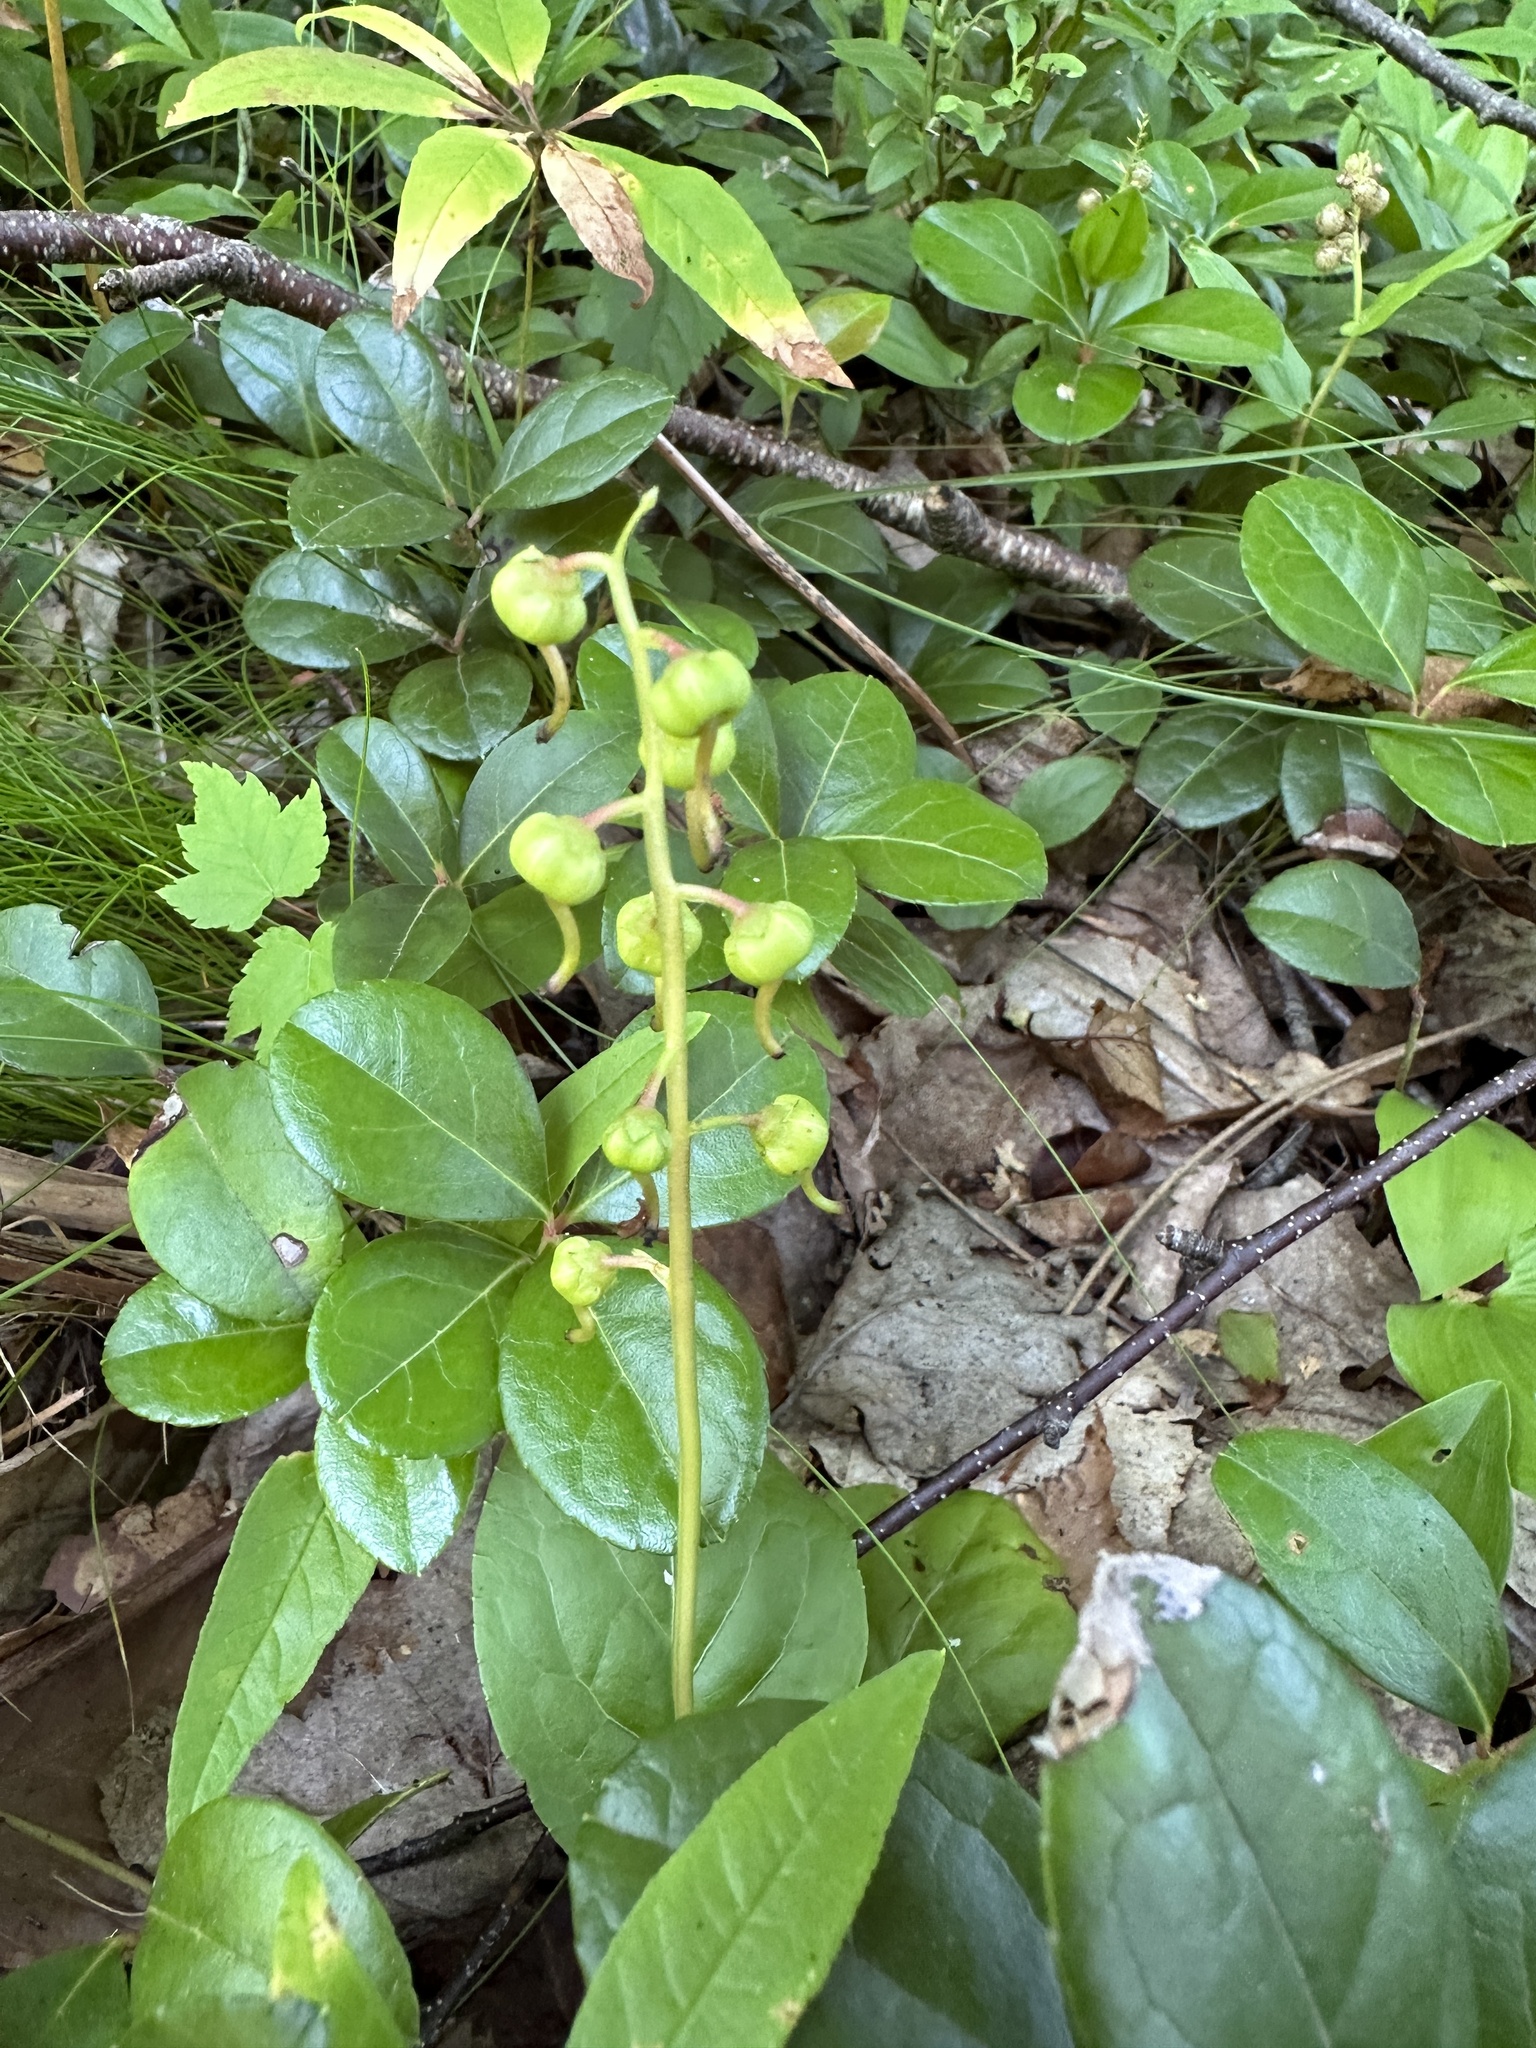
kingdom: Plantae
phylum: Tracheophyta
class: Magnoliopsida
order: Ericales
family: Ericaceae
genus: Pyrola
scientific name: Pyrola elliptica
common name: Shinleaf
